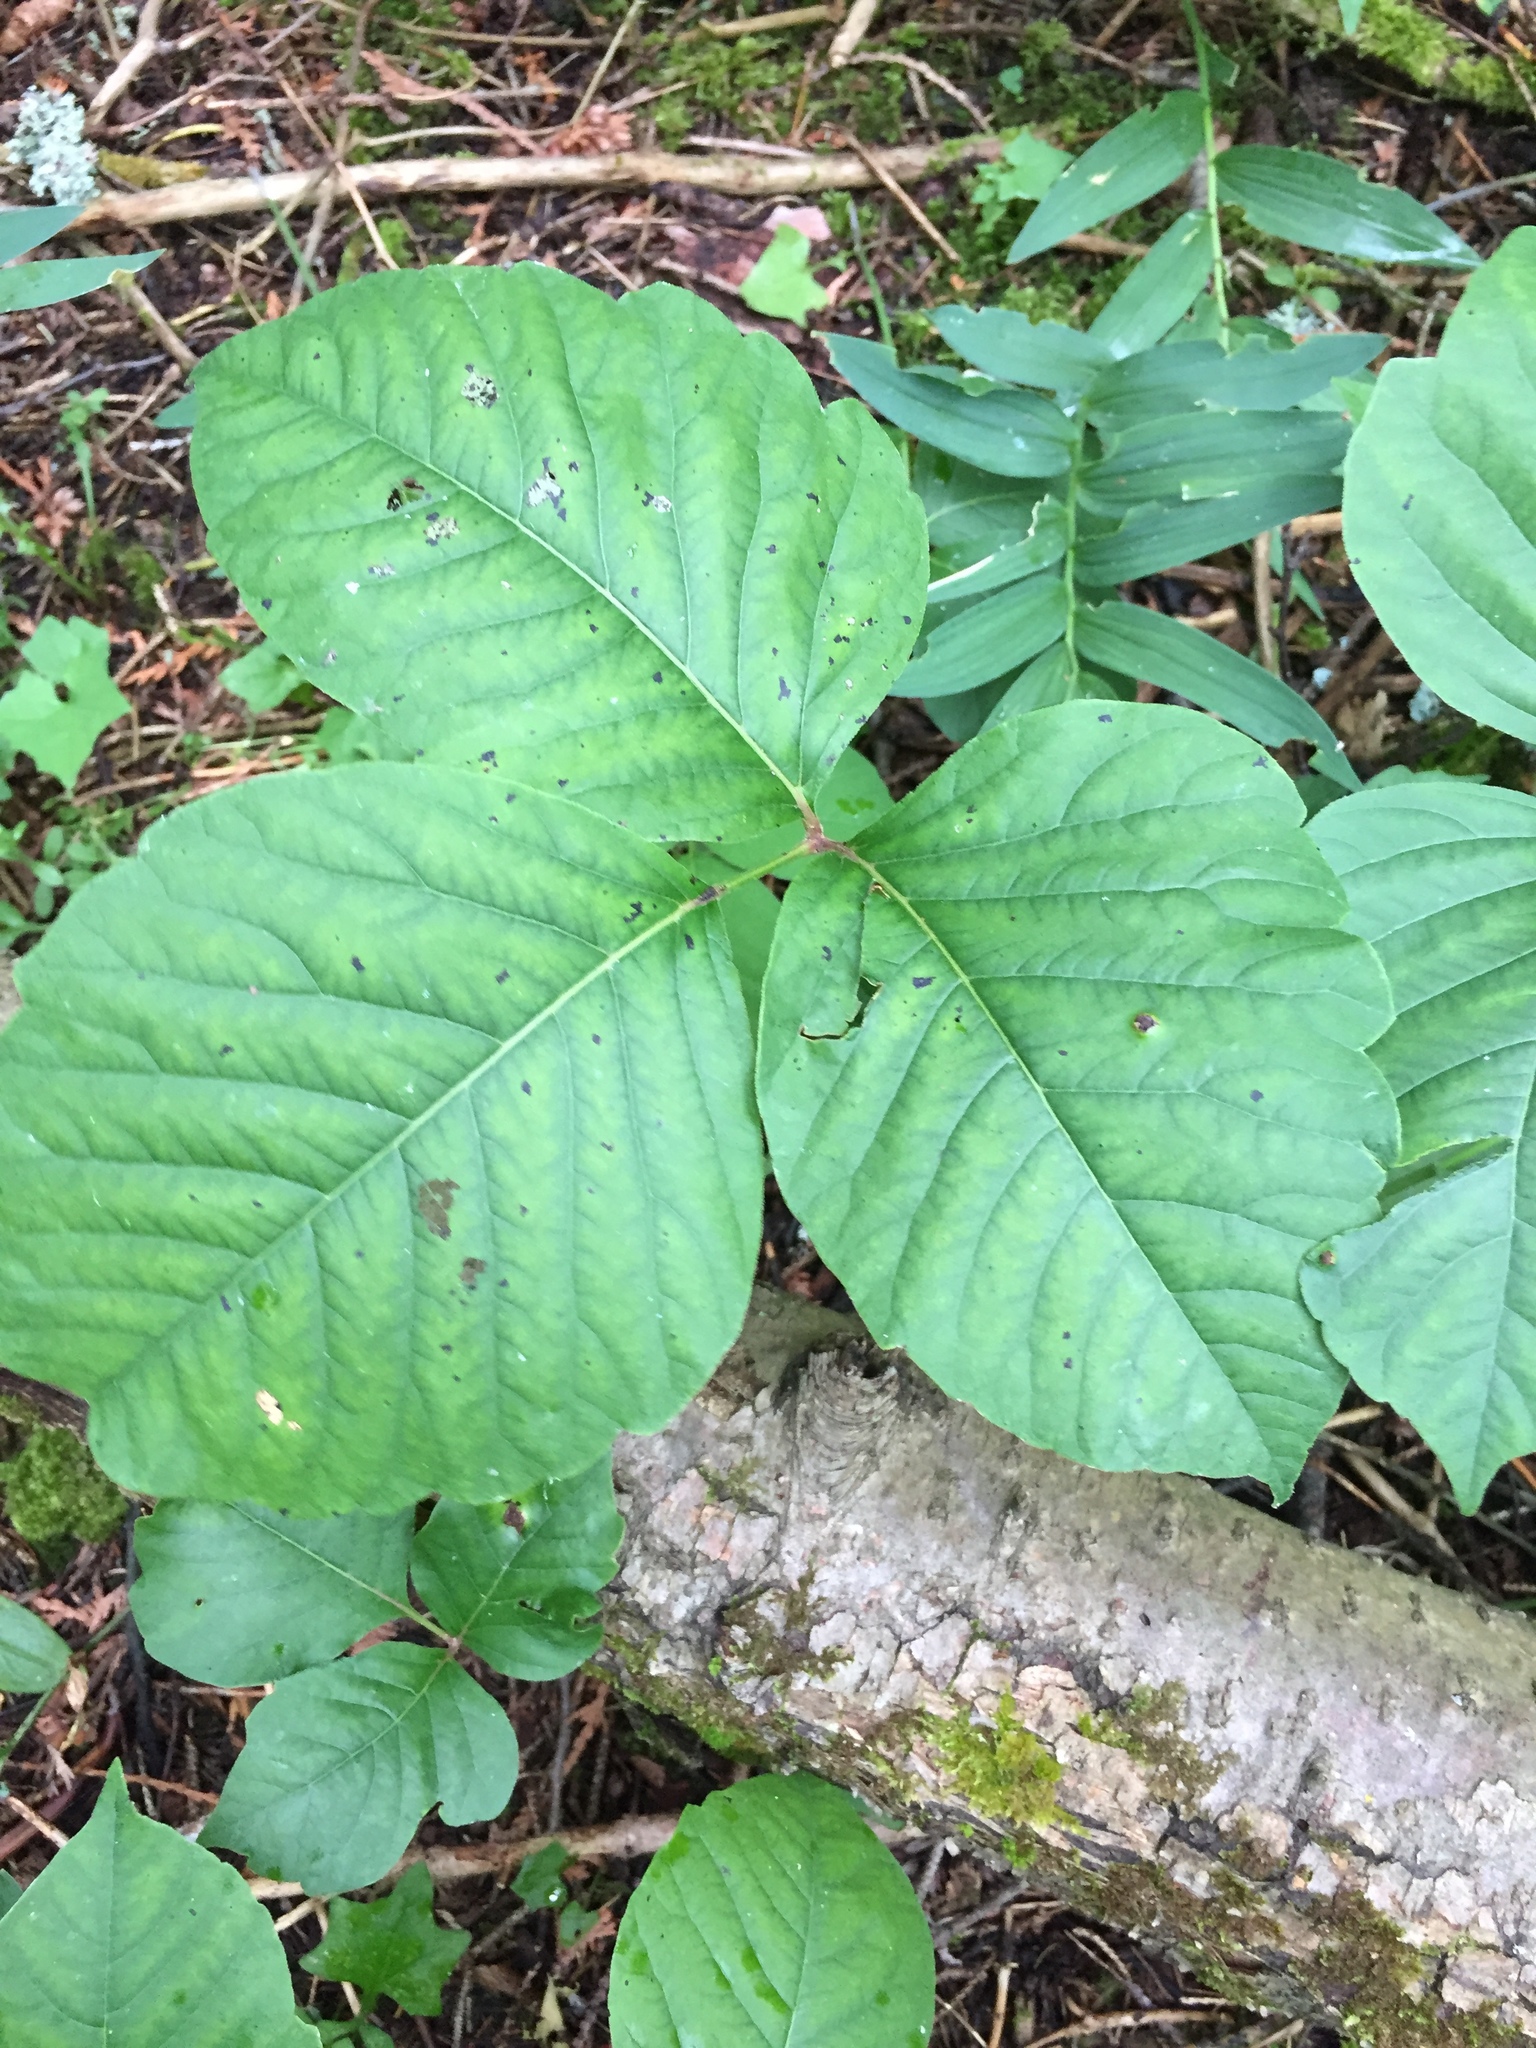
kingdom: Plantae
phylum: Tracheophyta
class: Magnoliopsida
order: Sapindales
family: Anacardiaceae
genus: Toxicodendron
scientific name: Toxicodendron rydbergii
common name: Rydberg's poison-ivy
